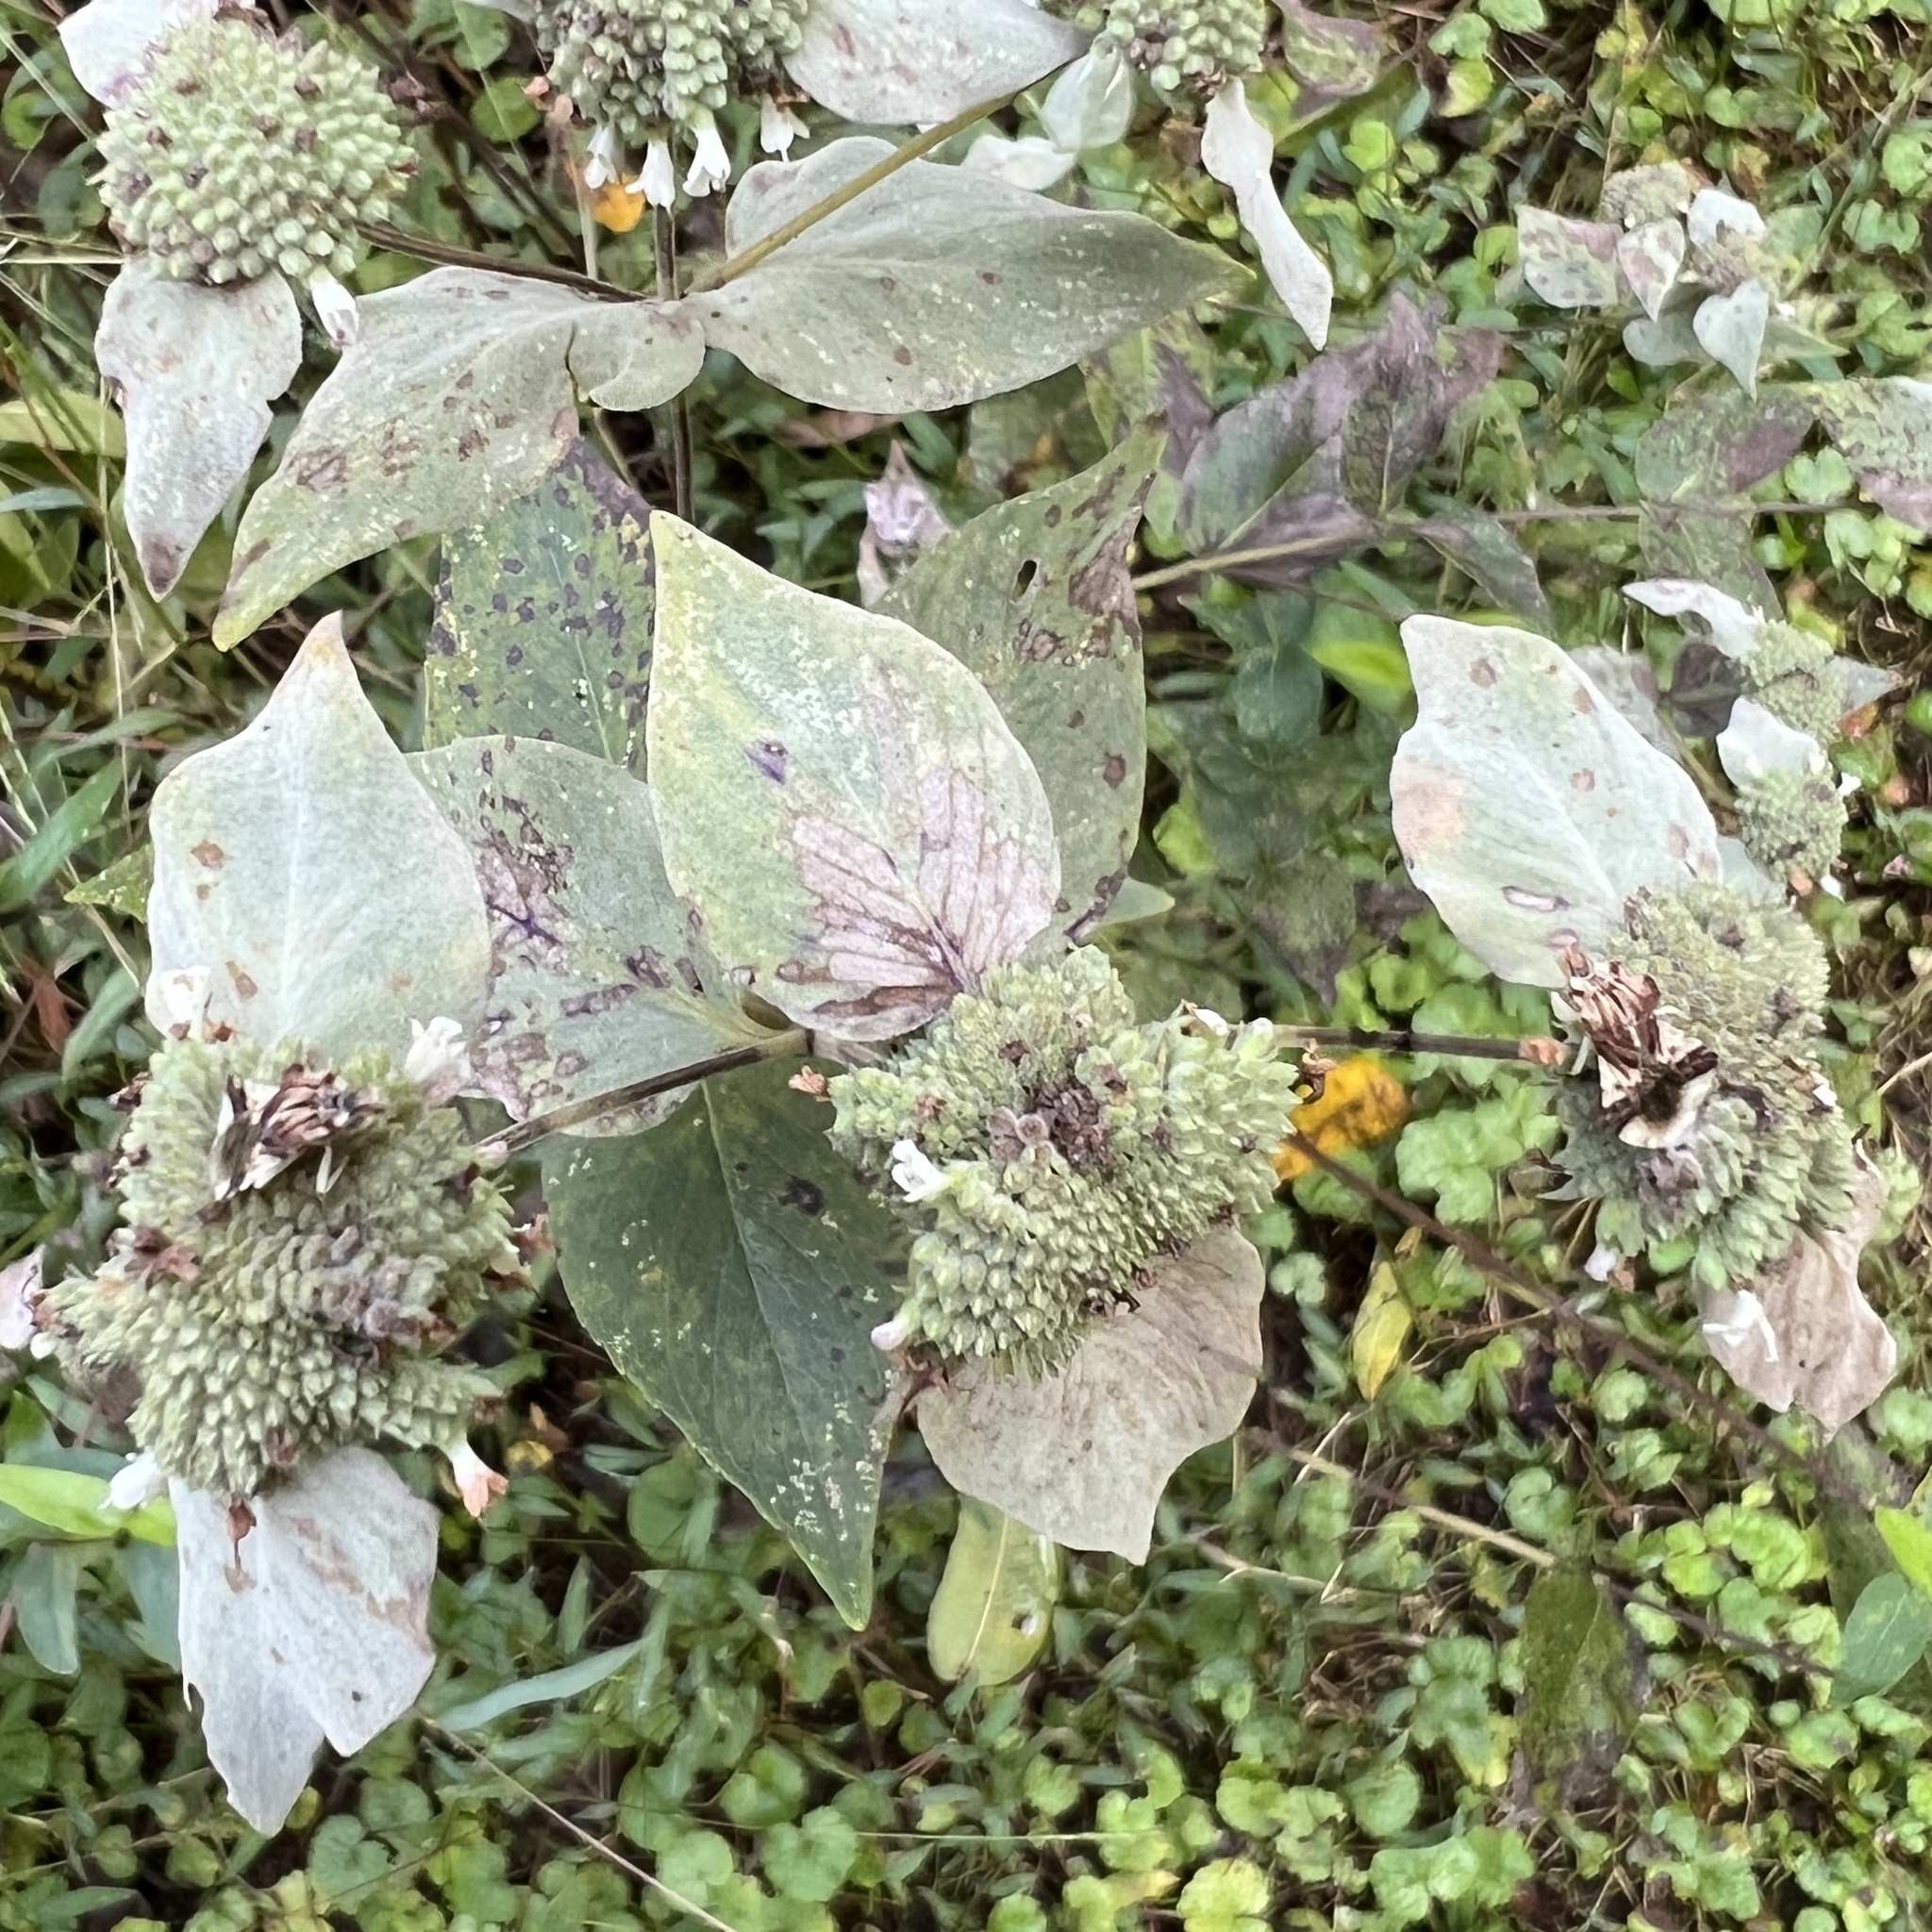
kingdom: Animalia
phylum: Arthropoda
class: Insecta
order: Hemiptera
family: Reduviidae
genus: Phymata
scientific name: Phymata fasciata
